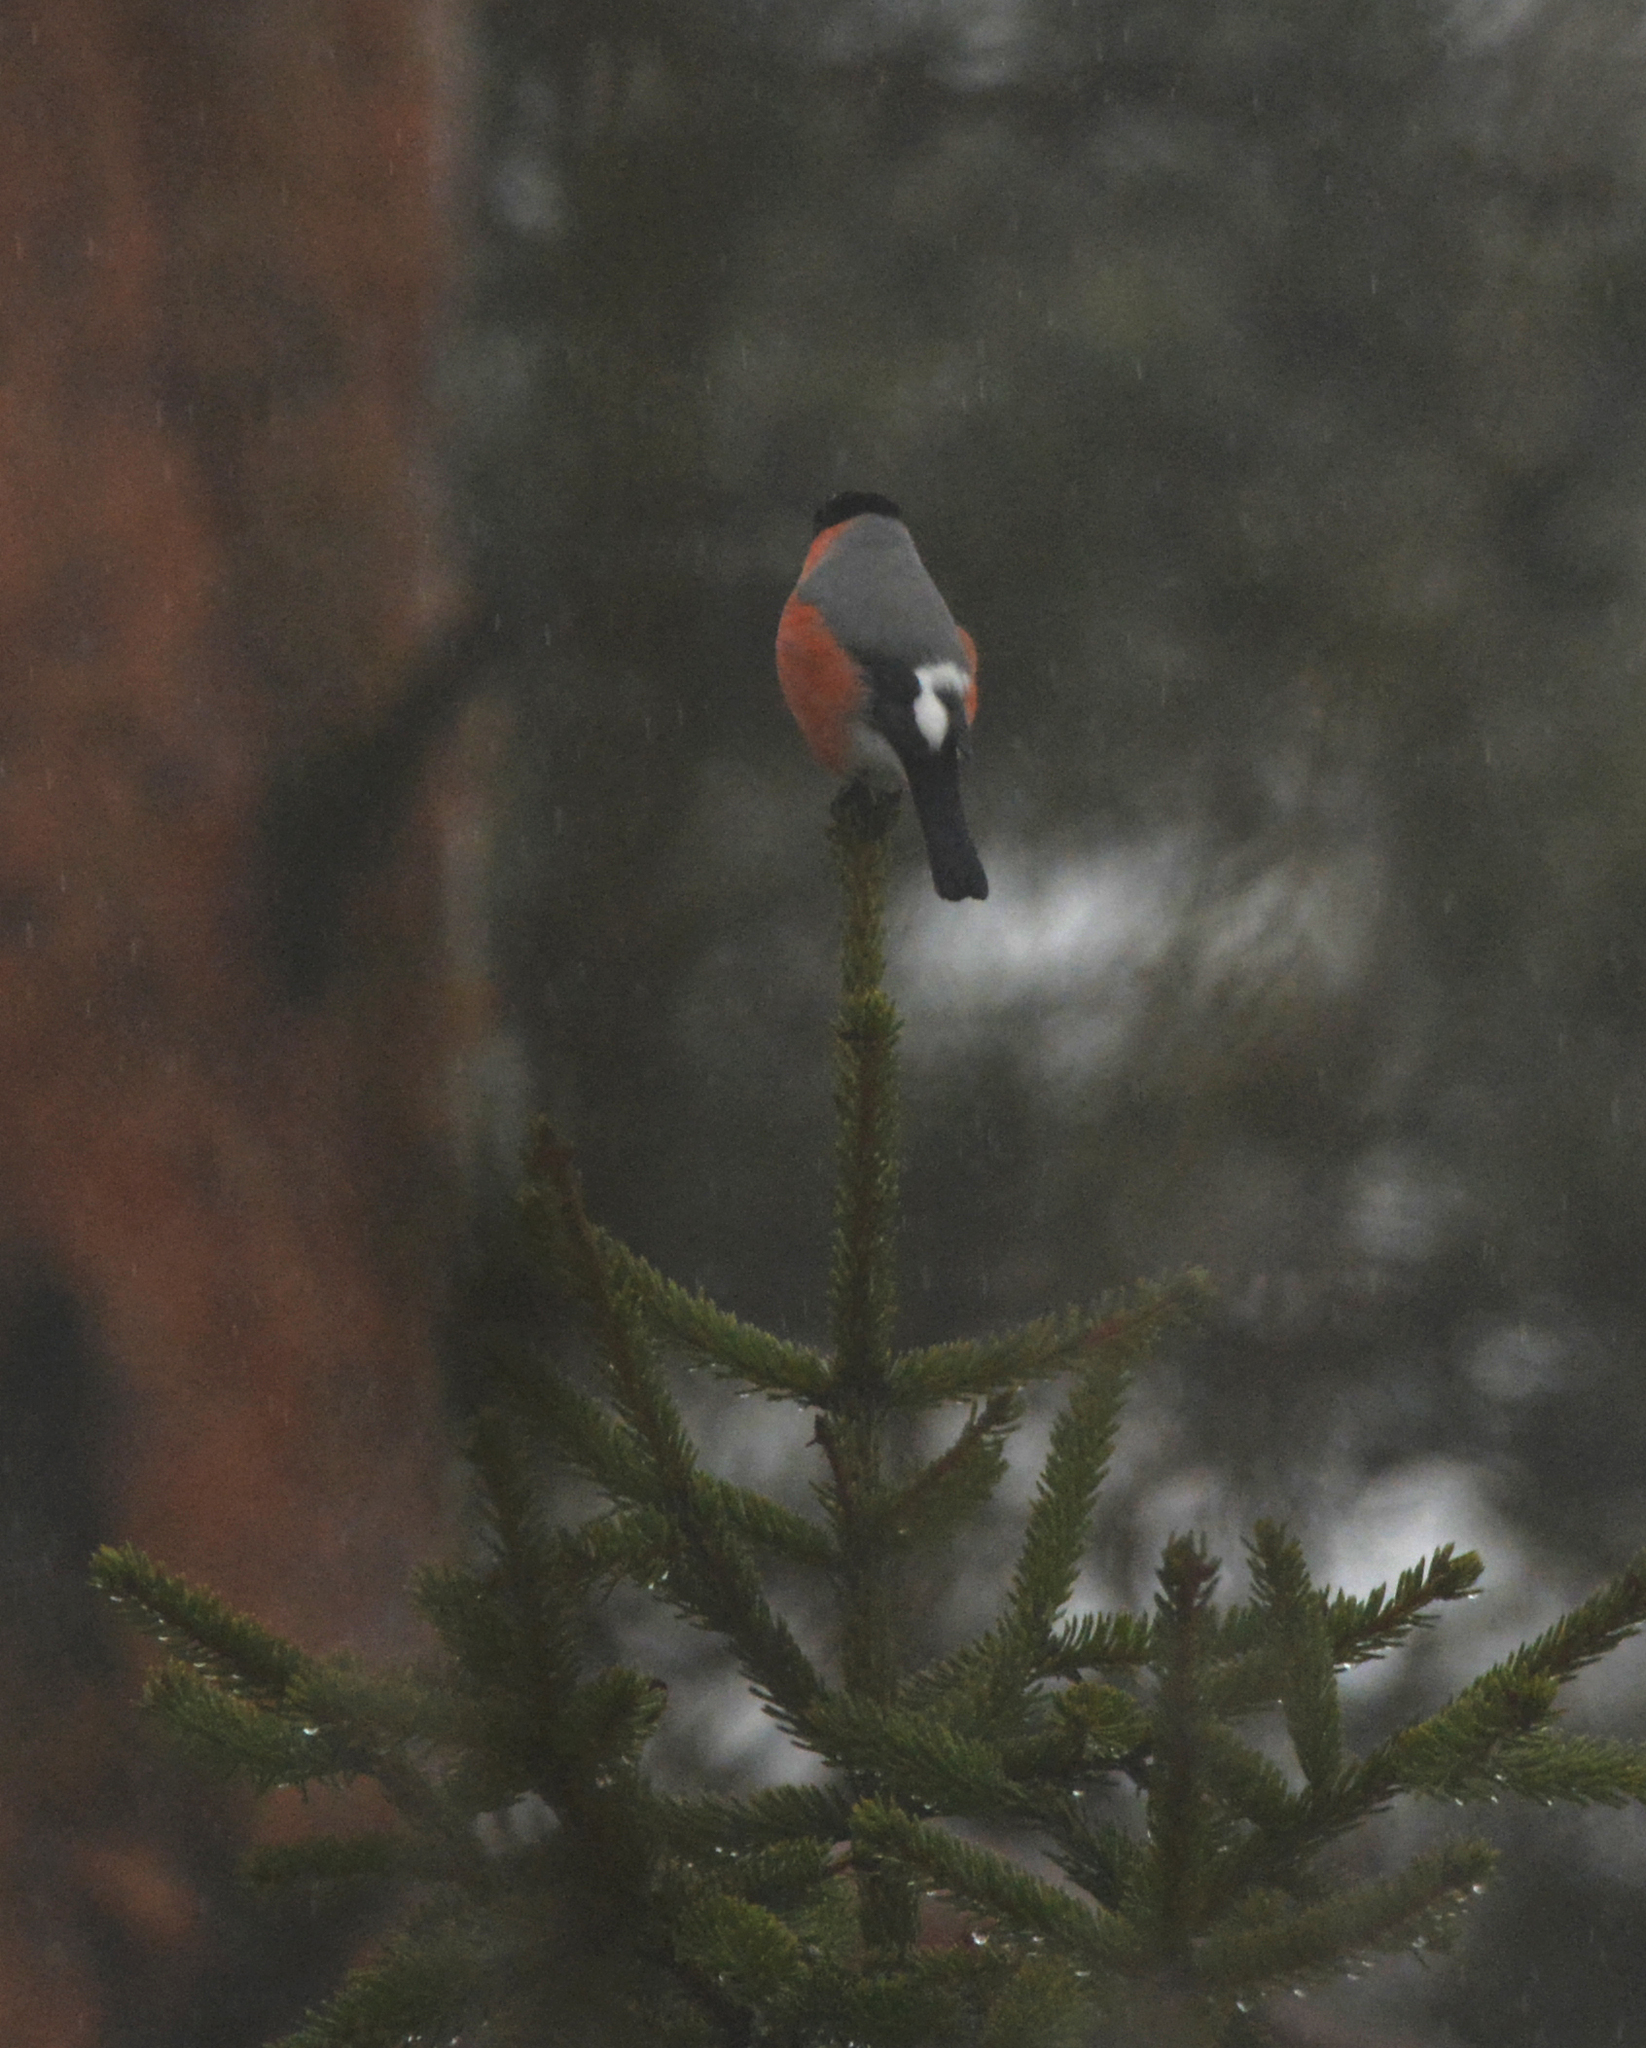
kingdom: Animalia
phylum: Chordata
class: Aves
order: Passeriformes
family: Fringillidae
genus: Pyrrhula
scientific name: Pyrrhula pyrrhula
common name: Eurasian bullfinch
